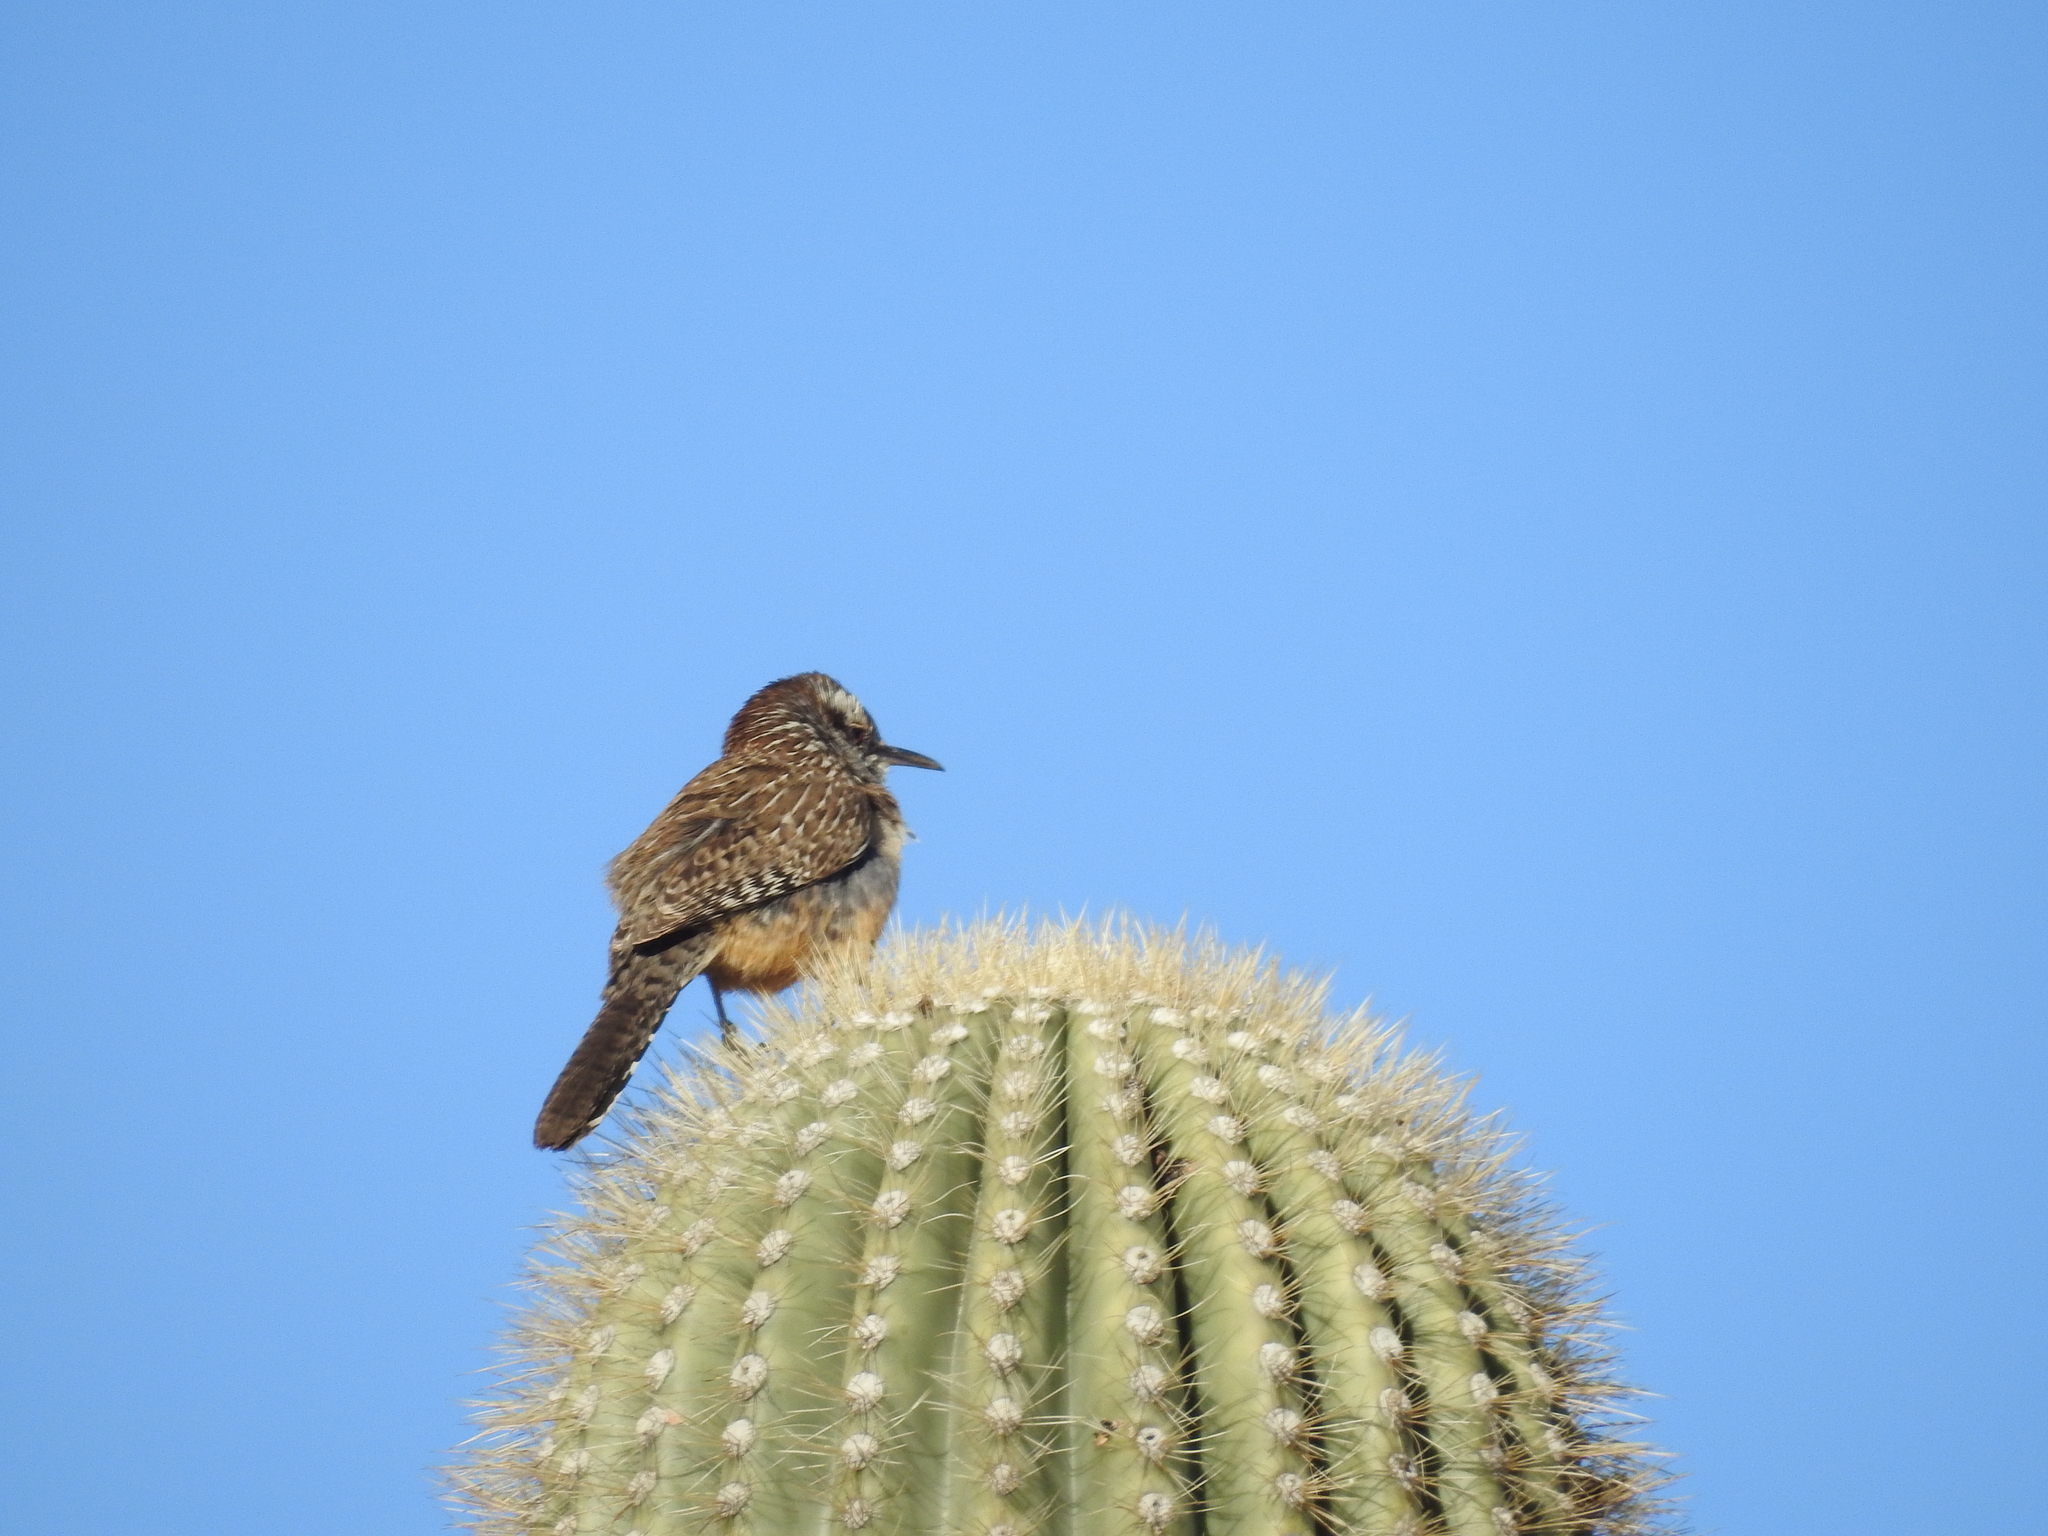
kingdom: Animalia
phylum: Chordata
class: Aves
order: Passeriformes
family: Troglodytidae
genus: Campylorhynchus
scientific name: Campylorhynchus brunneicapillus
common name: Cactus wren
